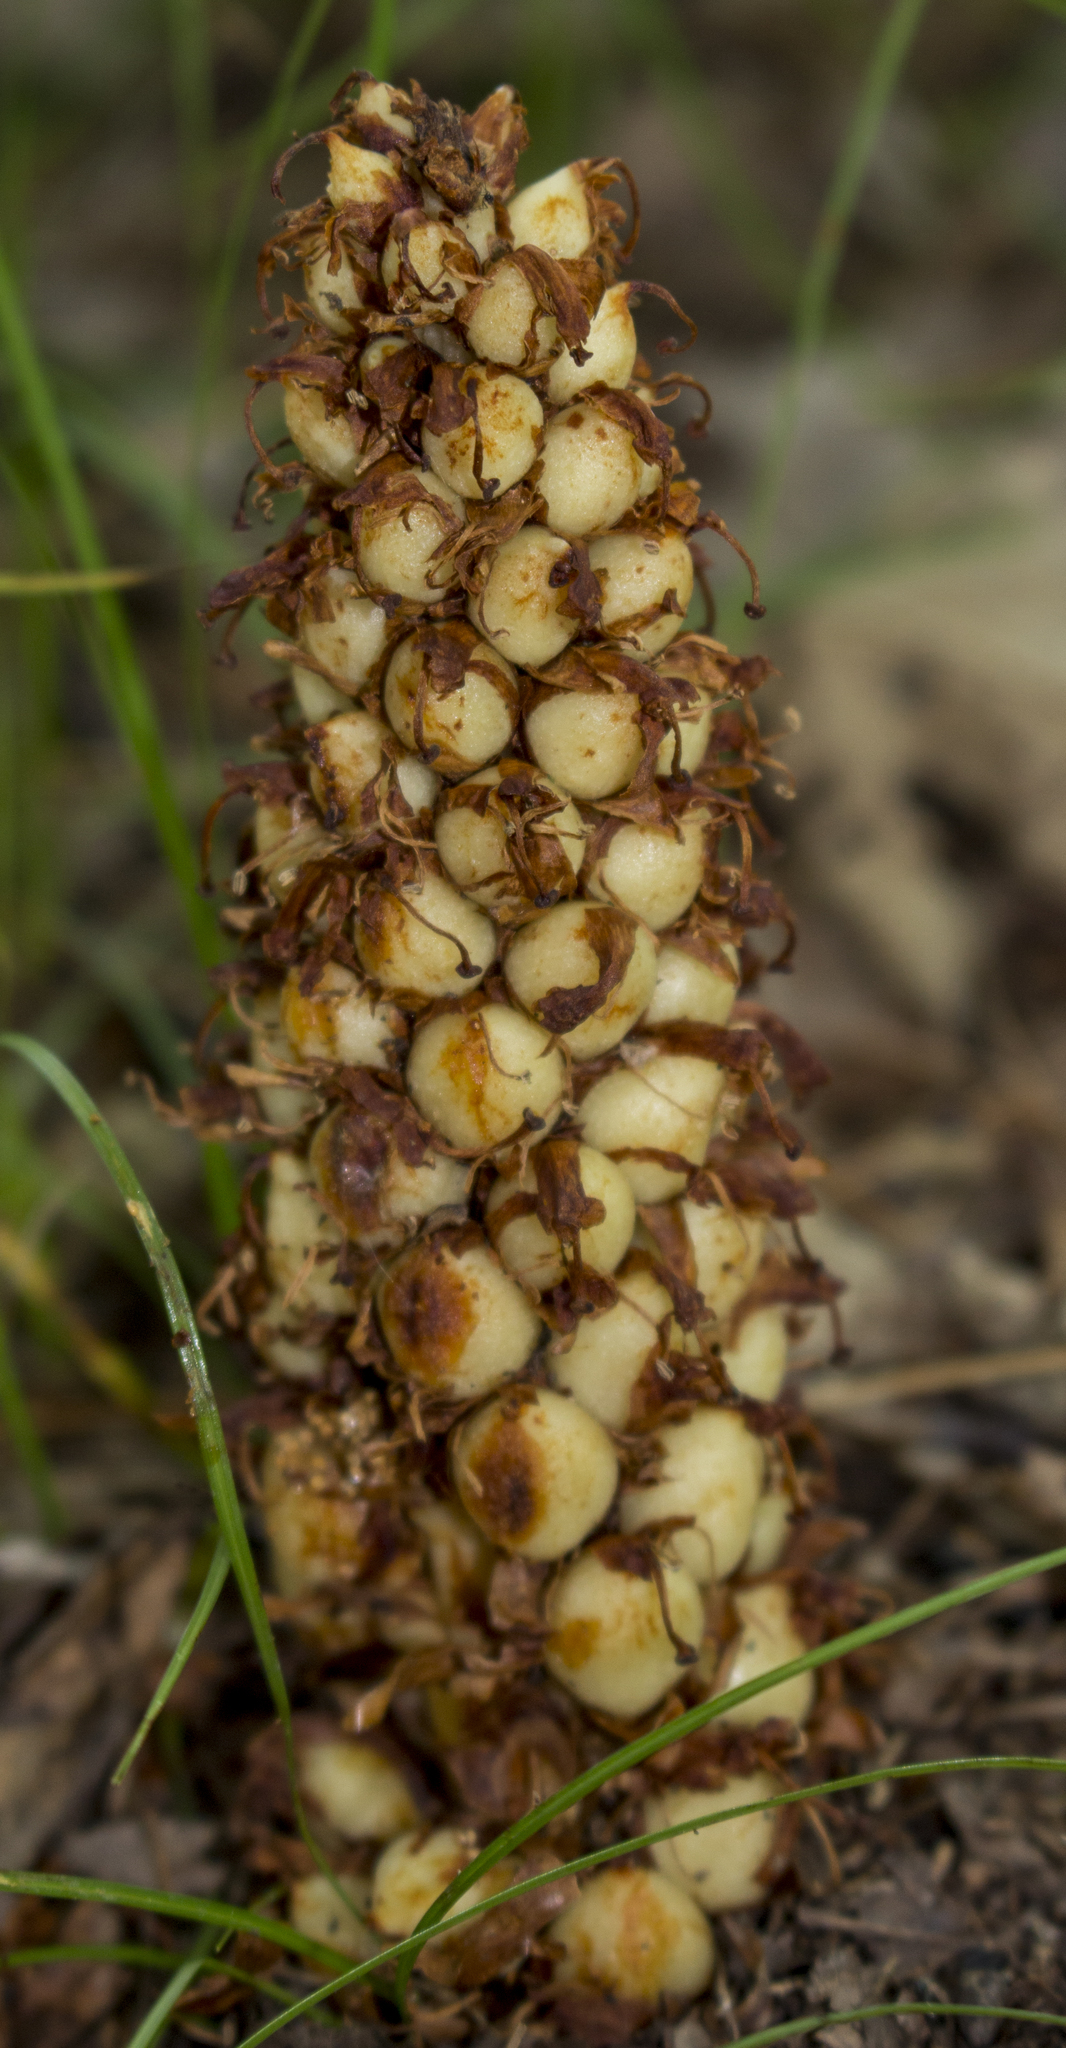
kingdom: Plantae
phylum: Tracheophyta
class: Magnoliopsida
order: Lamiales
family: Orobanchaceae
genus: Conopholis
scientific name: Conopholis americana
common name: American cancer-root
